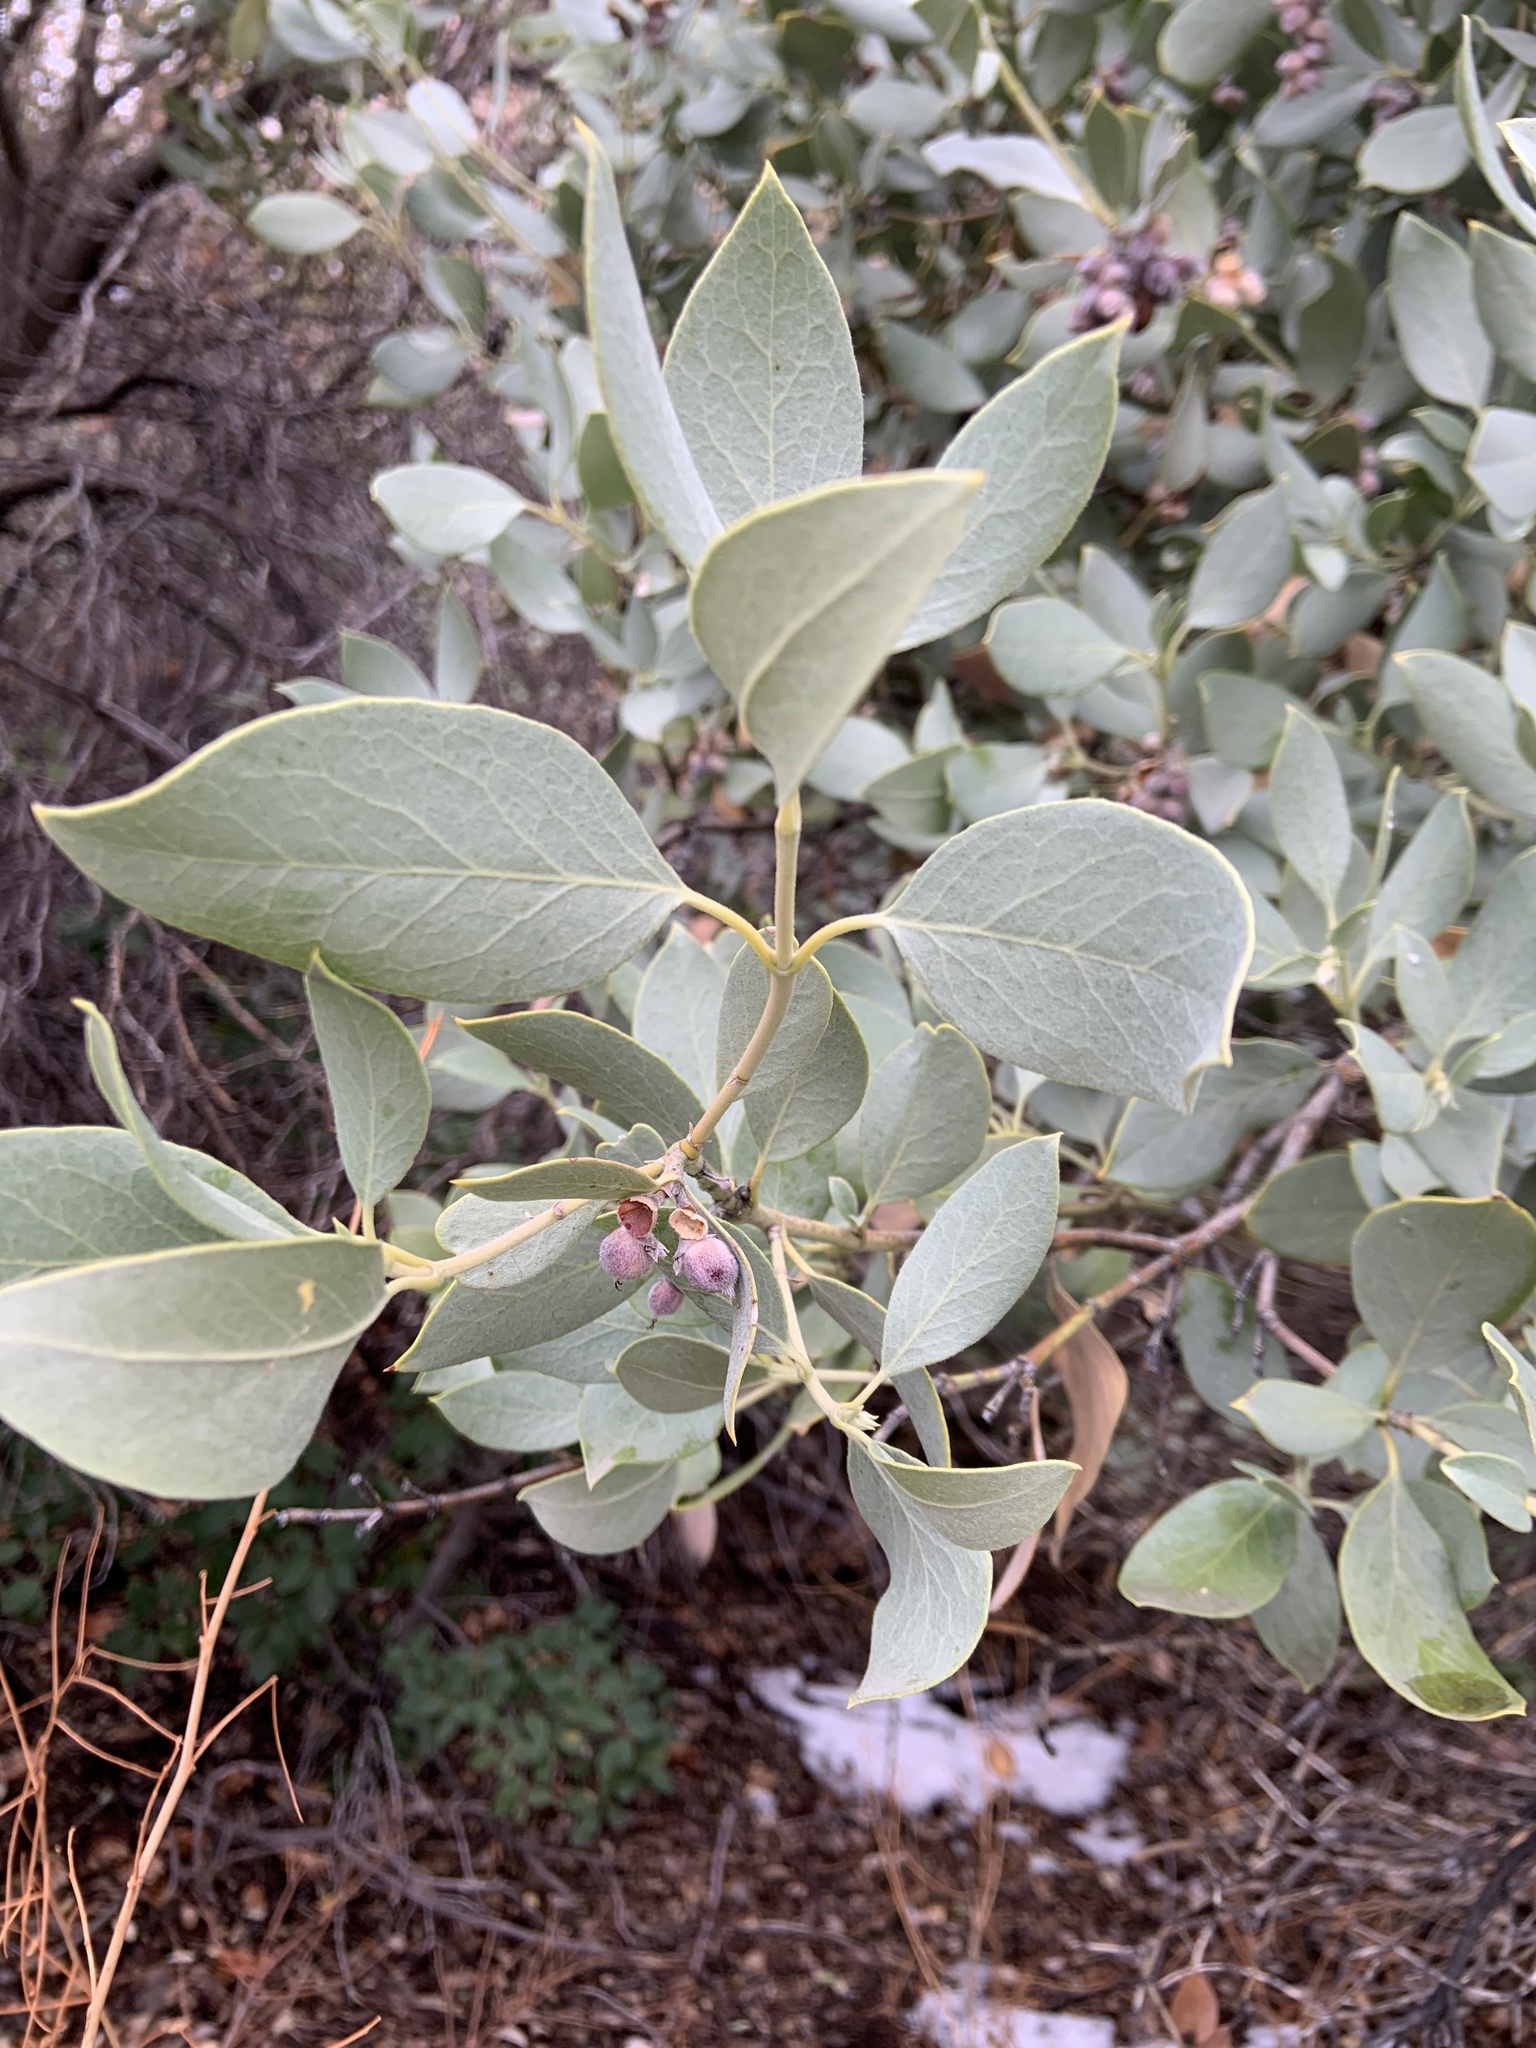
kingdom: Plantae
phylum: Tracheophyta
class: Magnoliopsida
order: Garryales
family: Garryaceae
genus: Garrya
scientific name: Garrya flavescens
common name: Ashy silk-tassel
